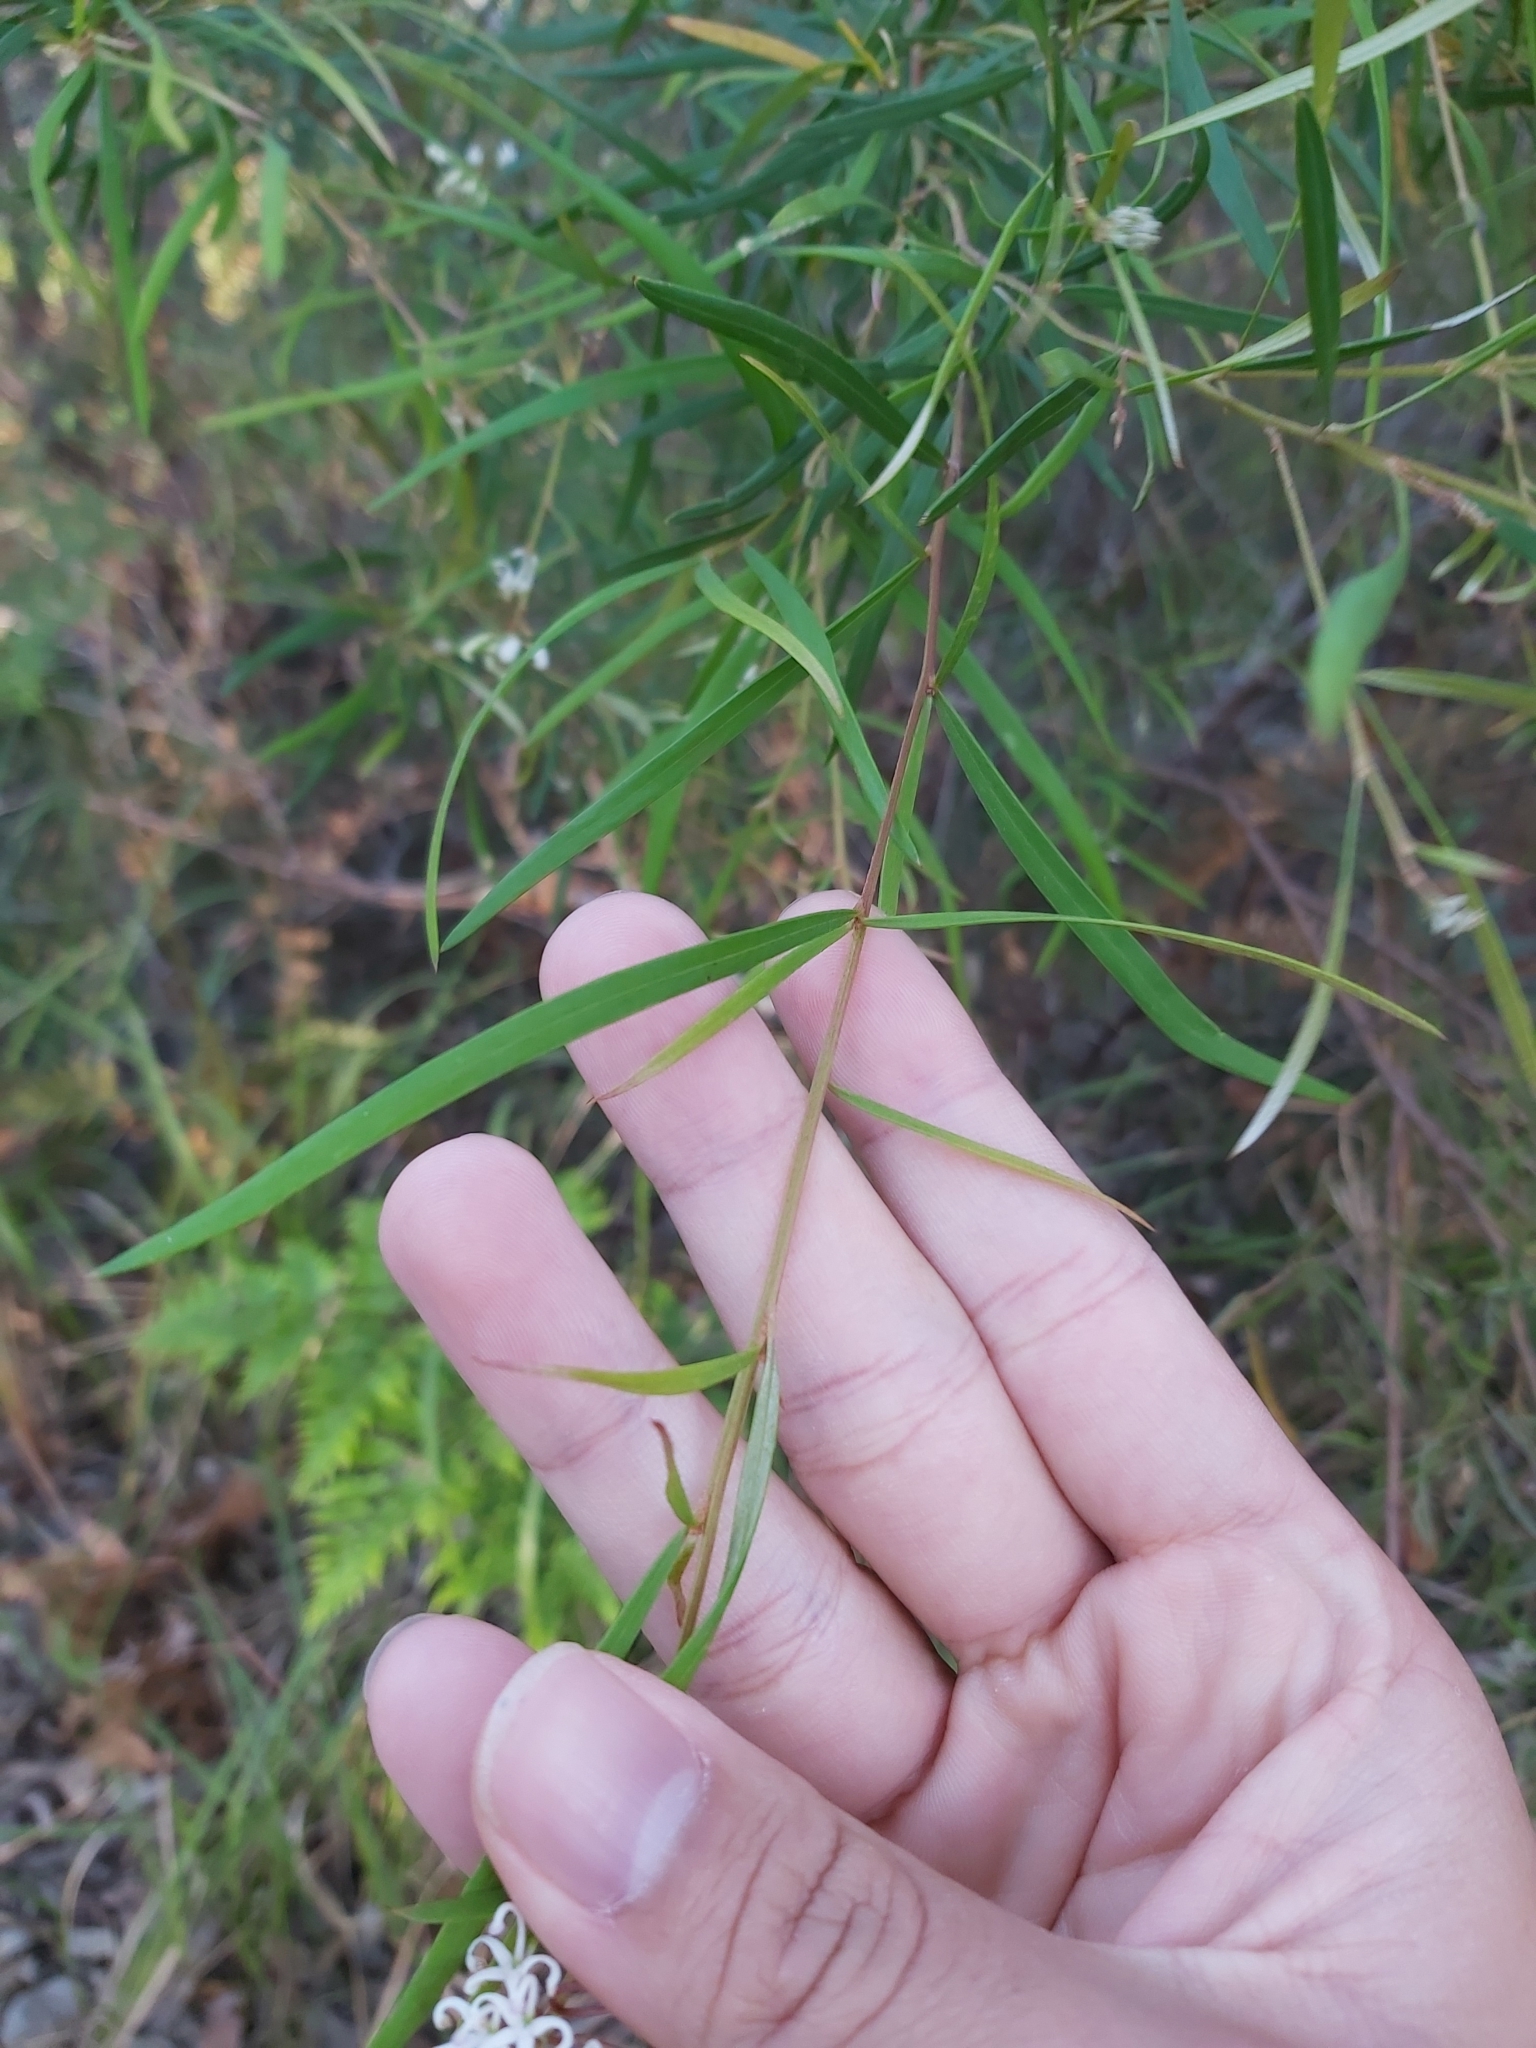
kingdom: Plantae
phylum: Tracheophyta
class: Magnoliopsida
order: Proteales
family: Proteaceae
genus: Grevillea
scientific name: Grevillea linearifolia
